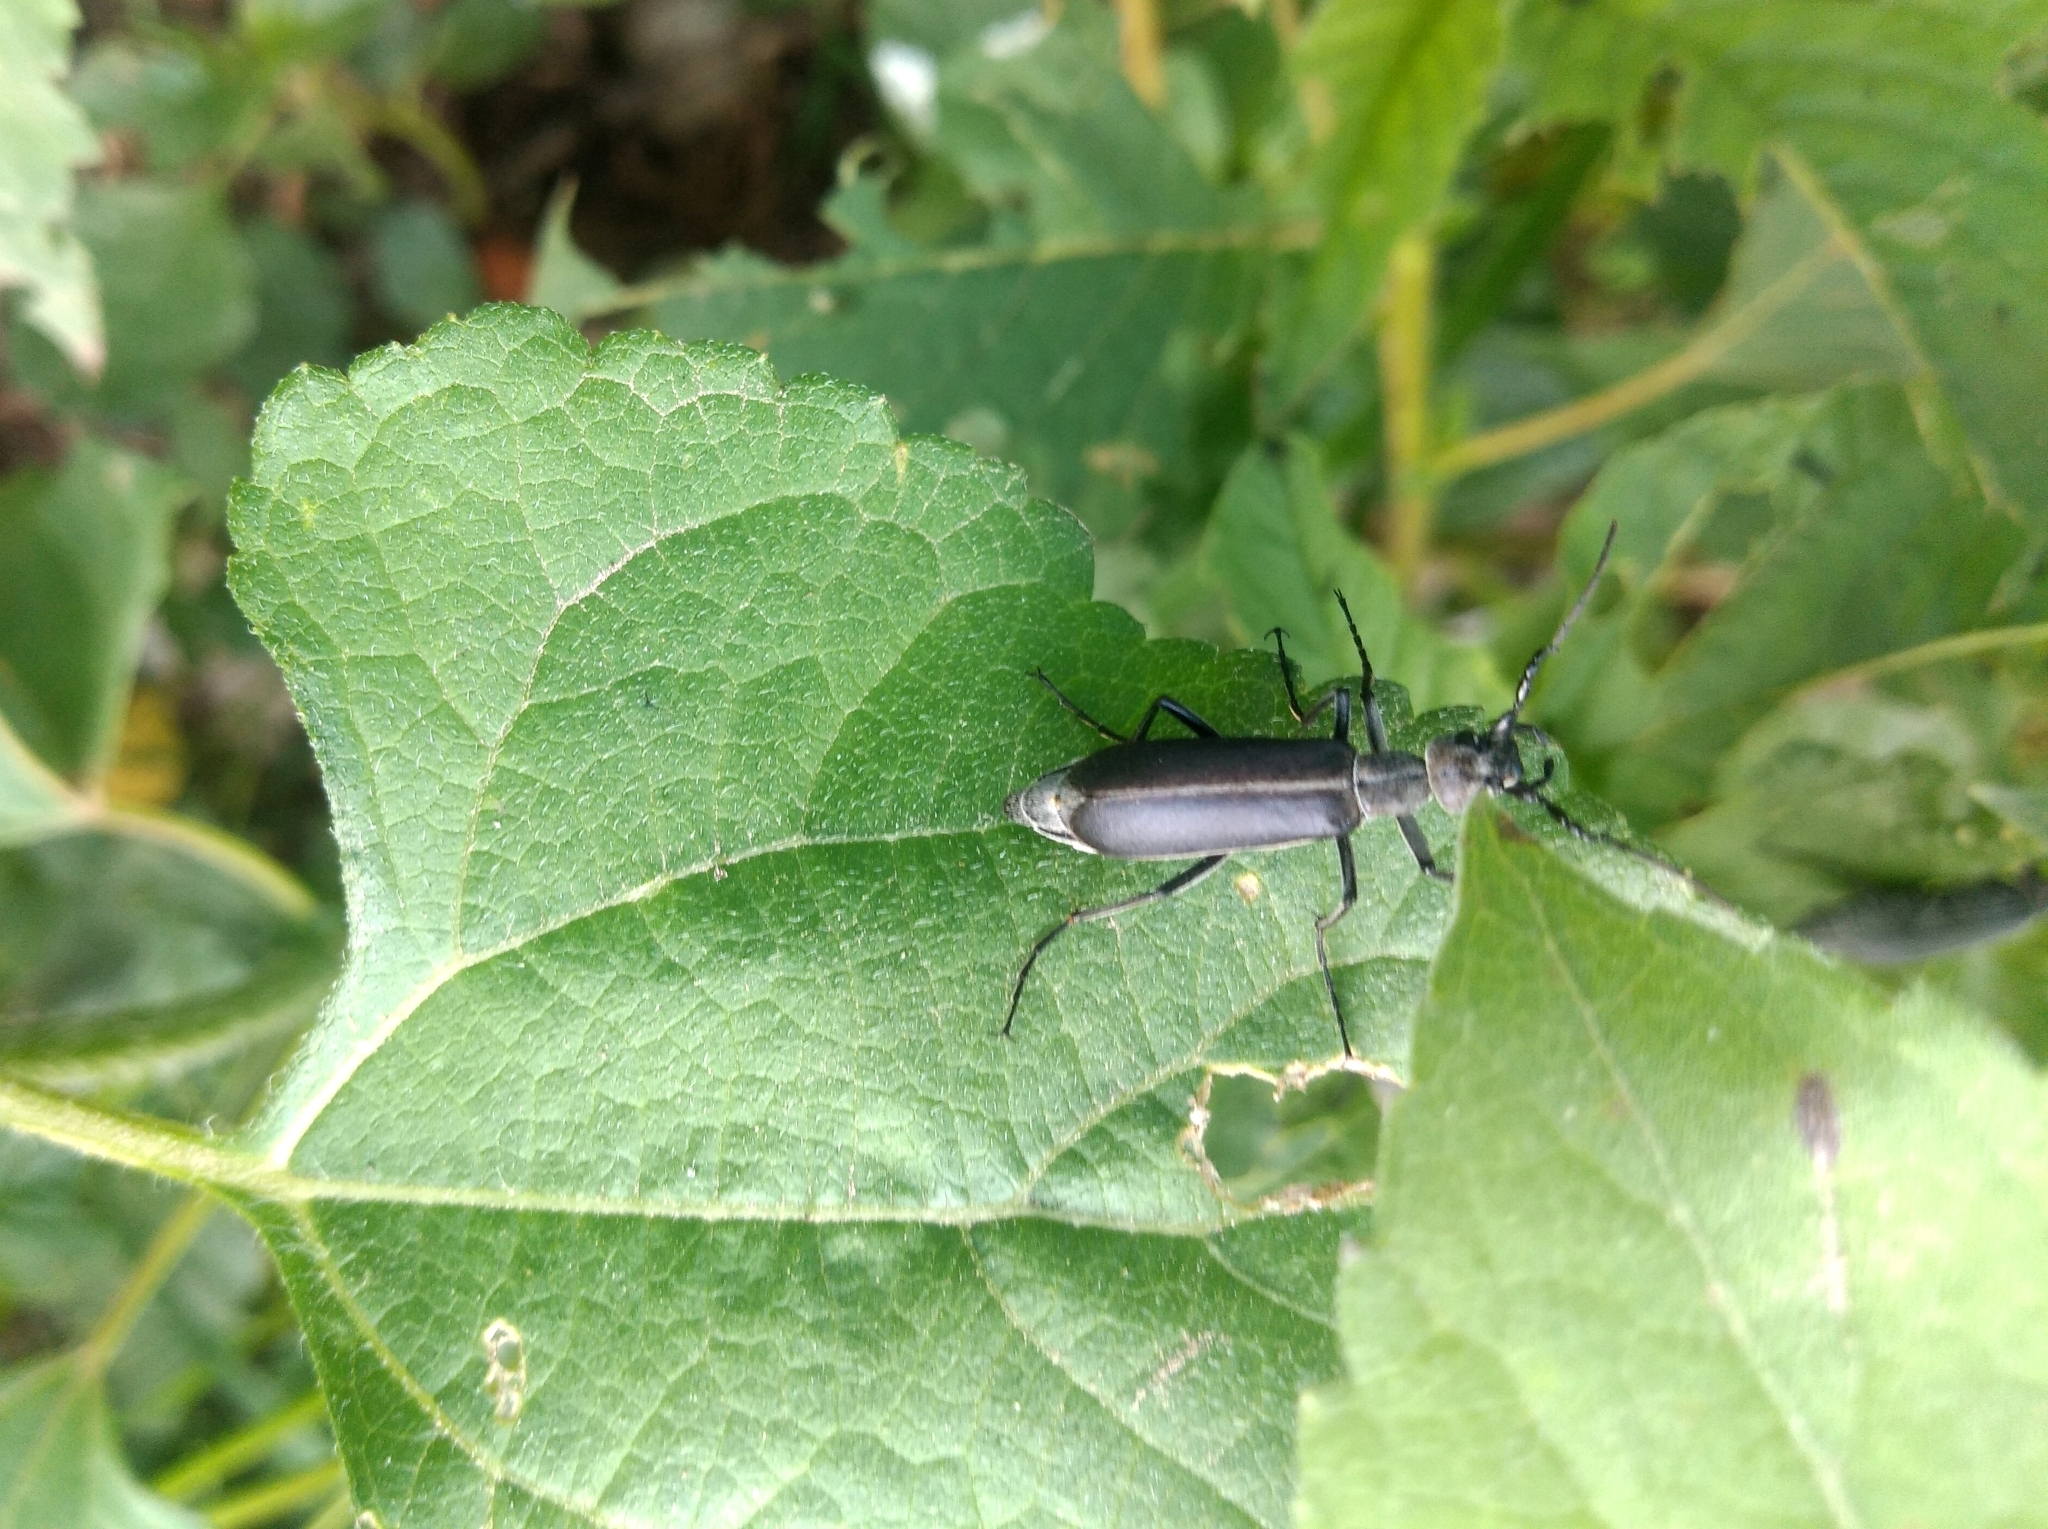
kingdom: Animalia
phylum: Arthropoda
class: Insecta
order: Coleoptera
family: Meloidae
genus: Epicauta
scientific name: Epicauta curvicornis
